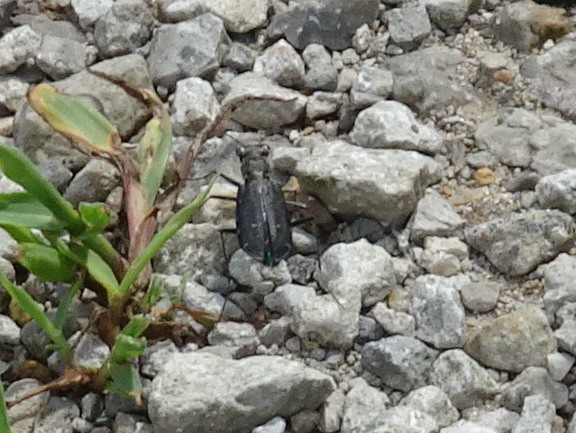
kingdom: Animalia
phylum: Arthropoda
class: Insecta
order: Coleoptera
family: Carabidae
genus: Cicindela
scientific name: Cicindela punctulata
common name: Punctured tiger beetle
